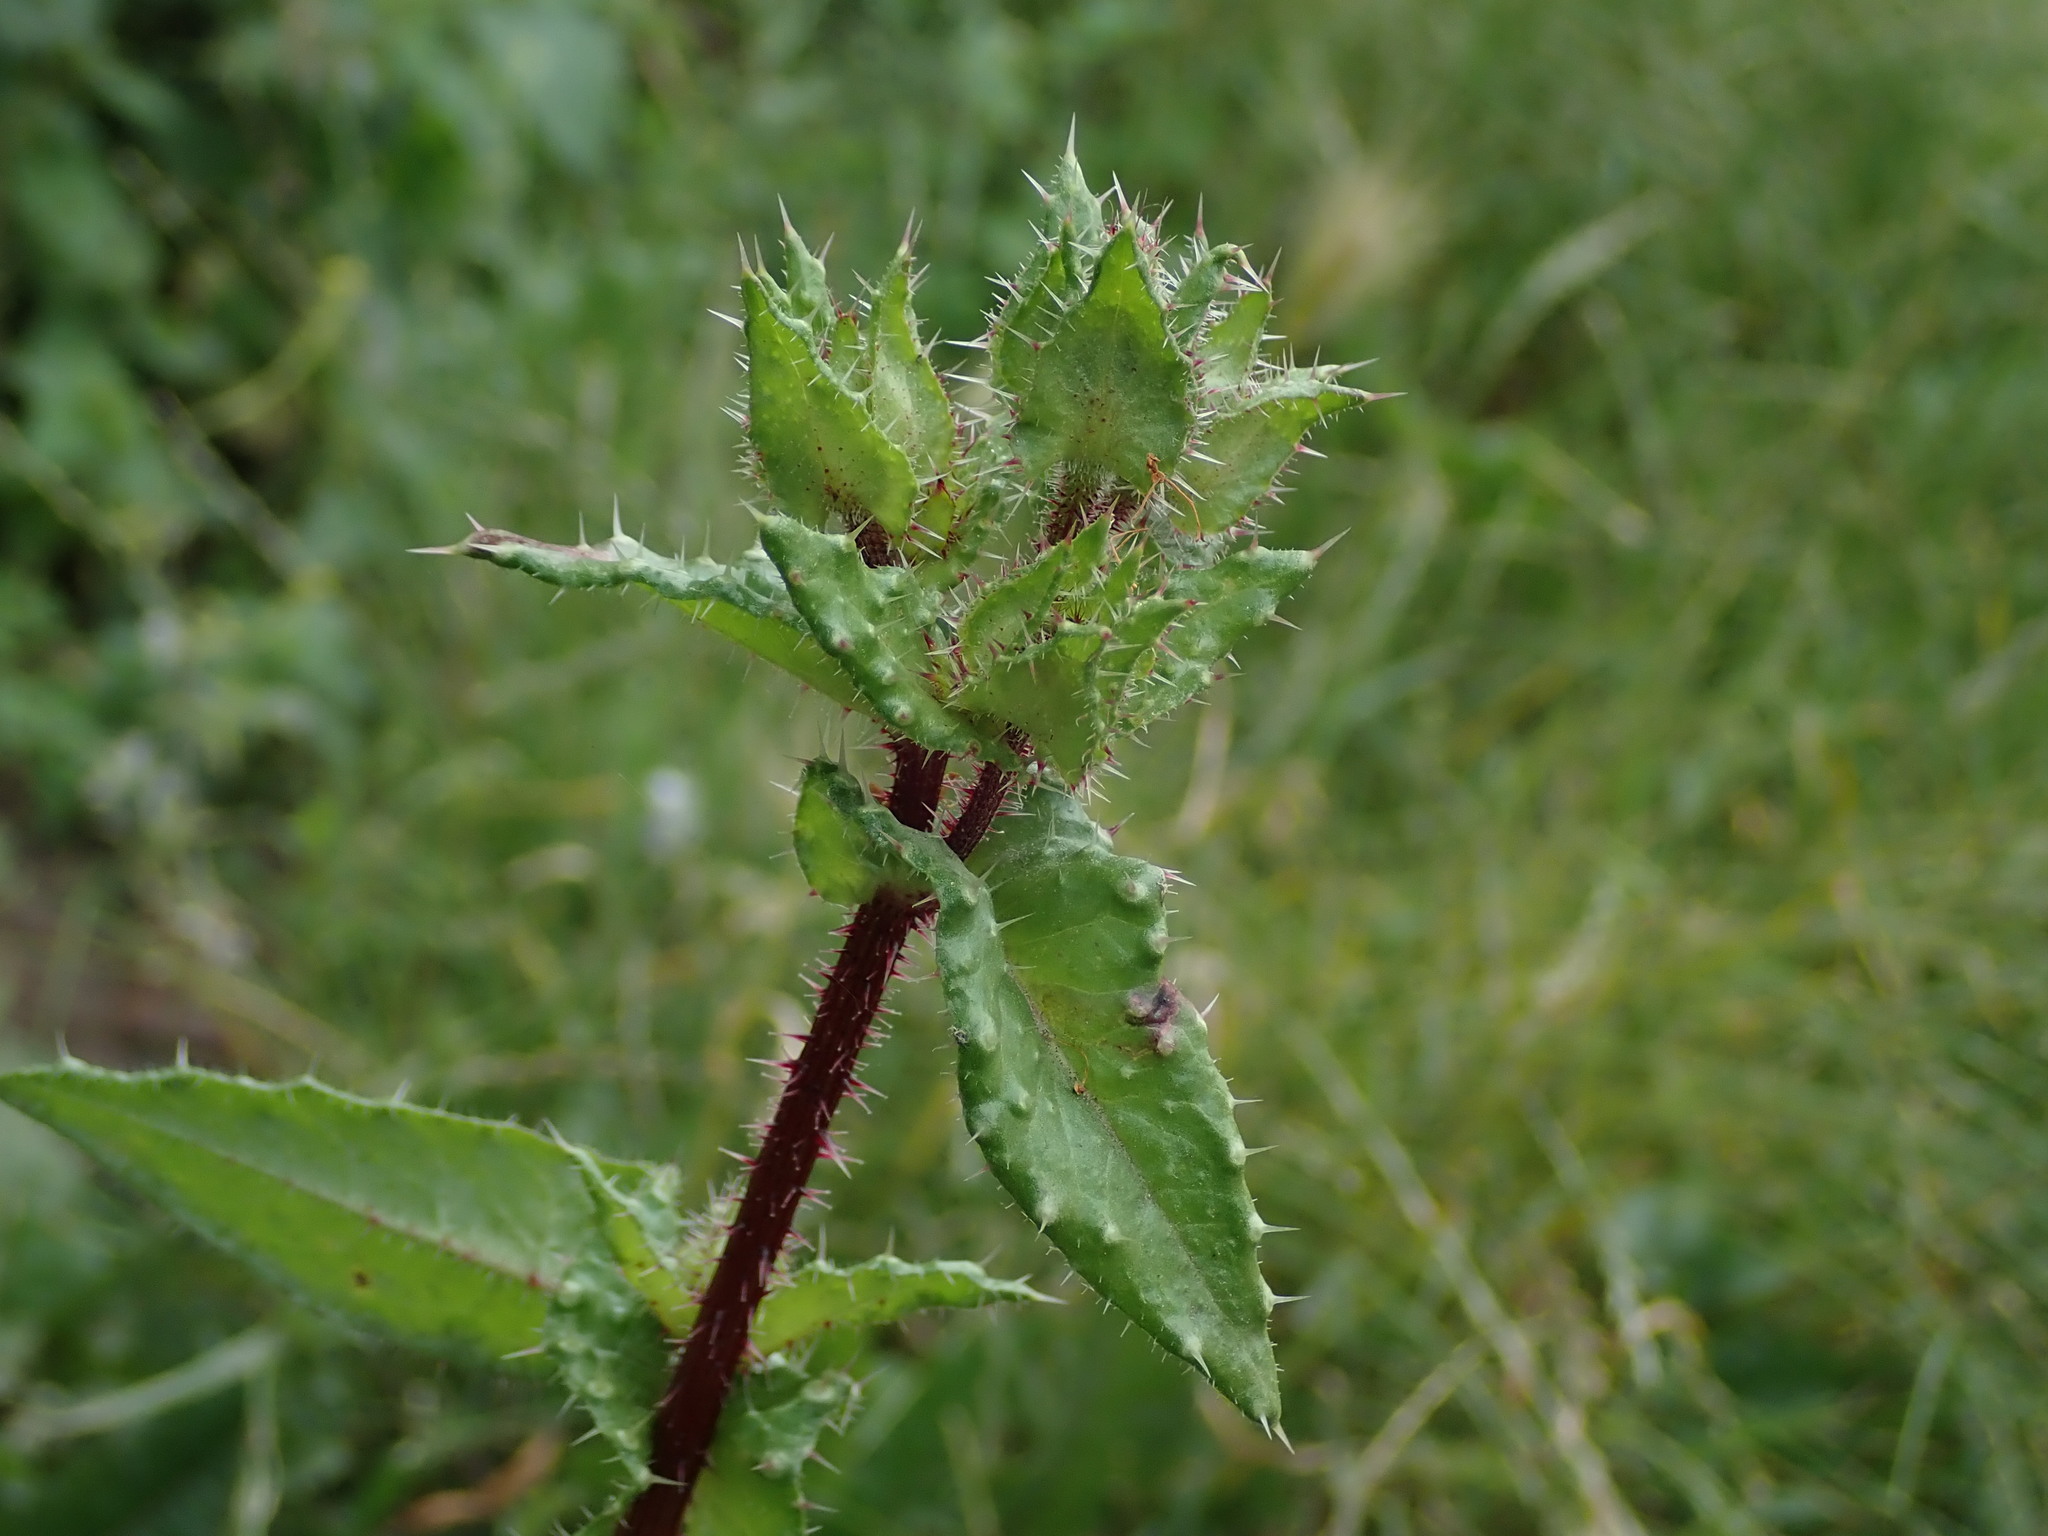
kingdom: Plantae
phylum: Tracheophyta
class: Magnoliopsida
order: Asterales
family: Asteraceae
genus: Helminthotheca
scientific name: Helminthotheca echioides
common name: Ox-tongue
